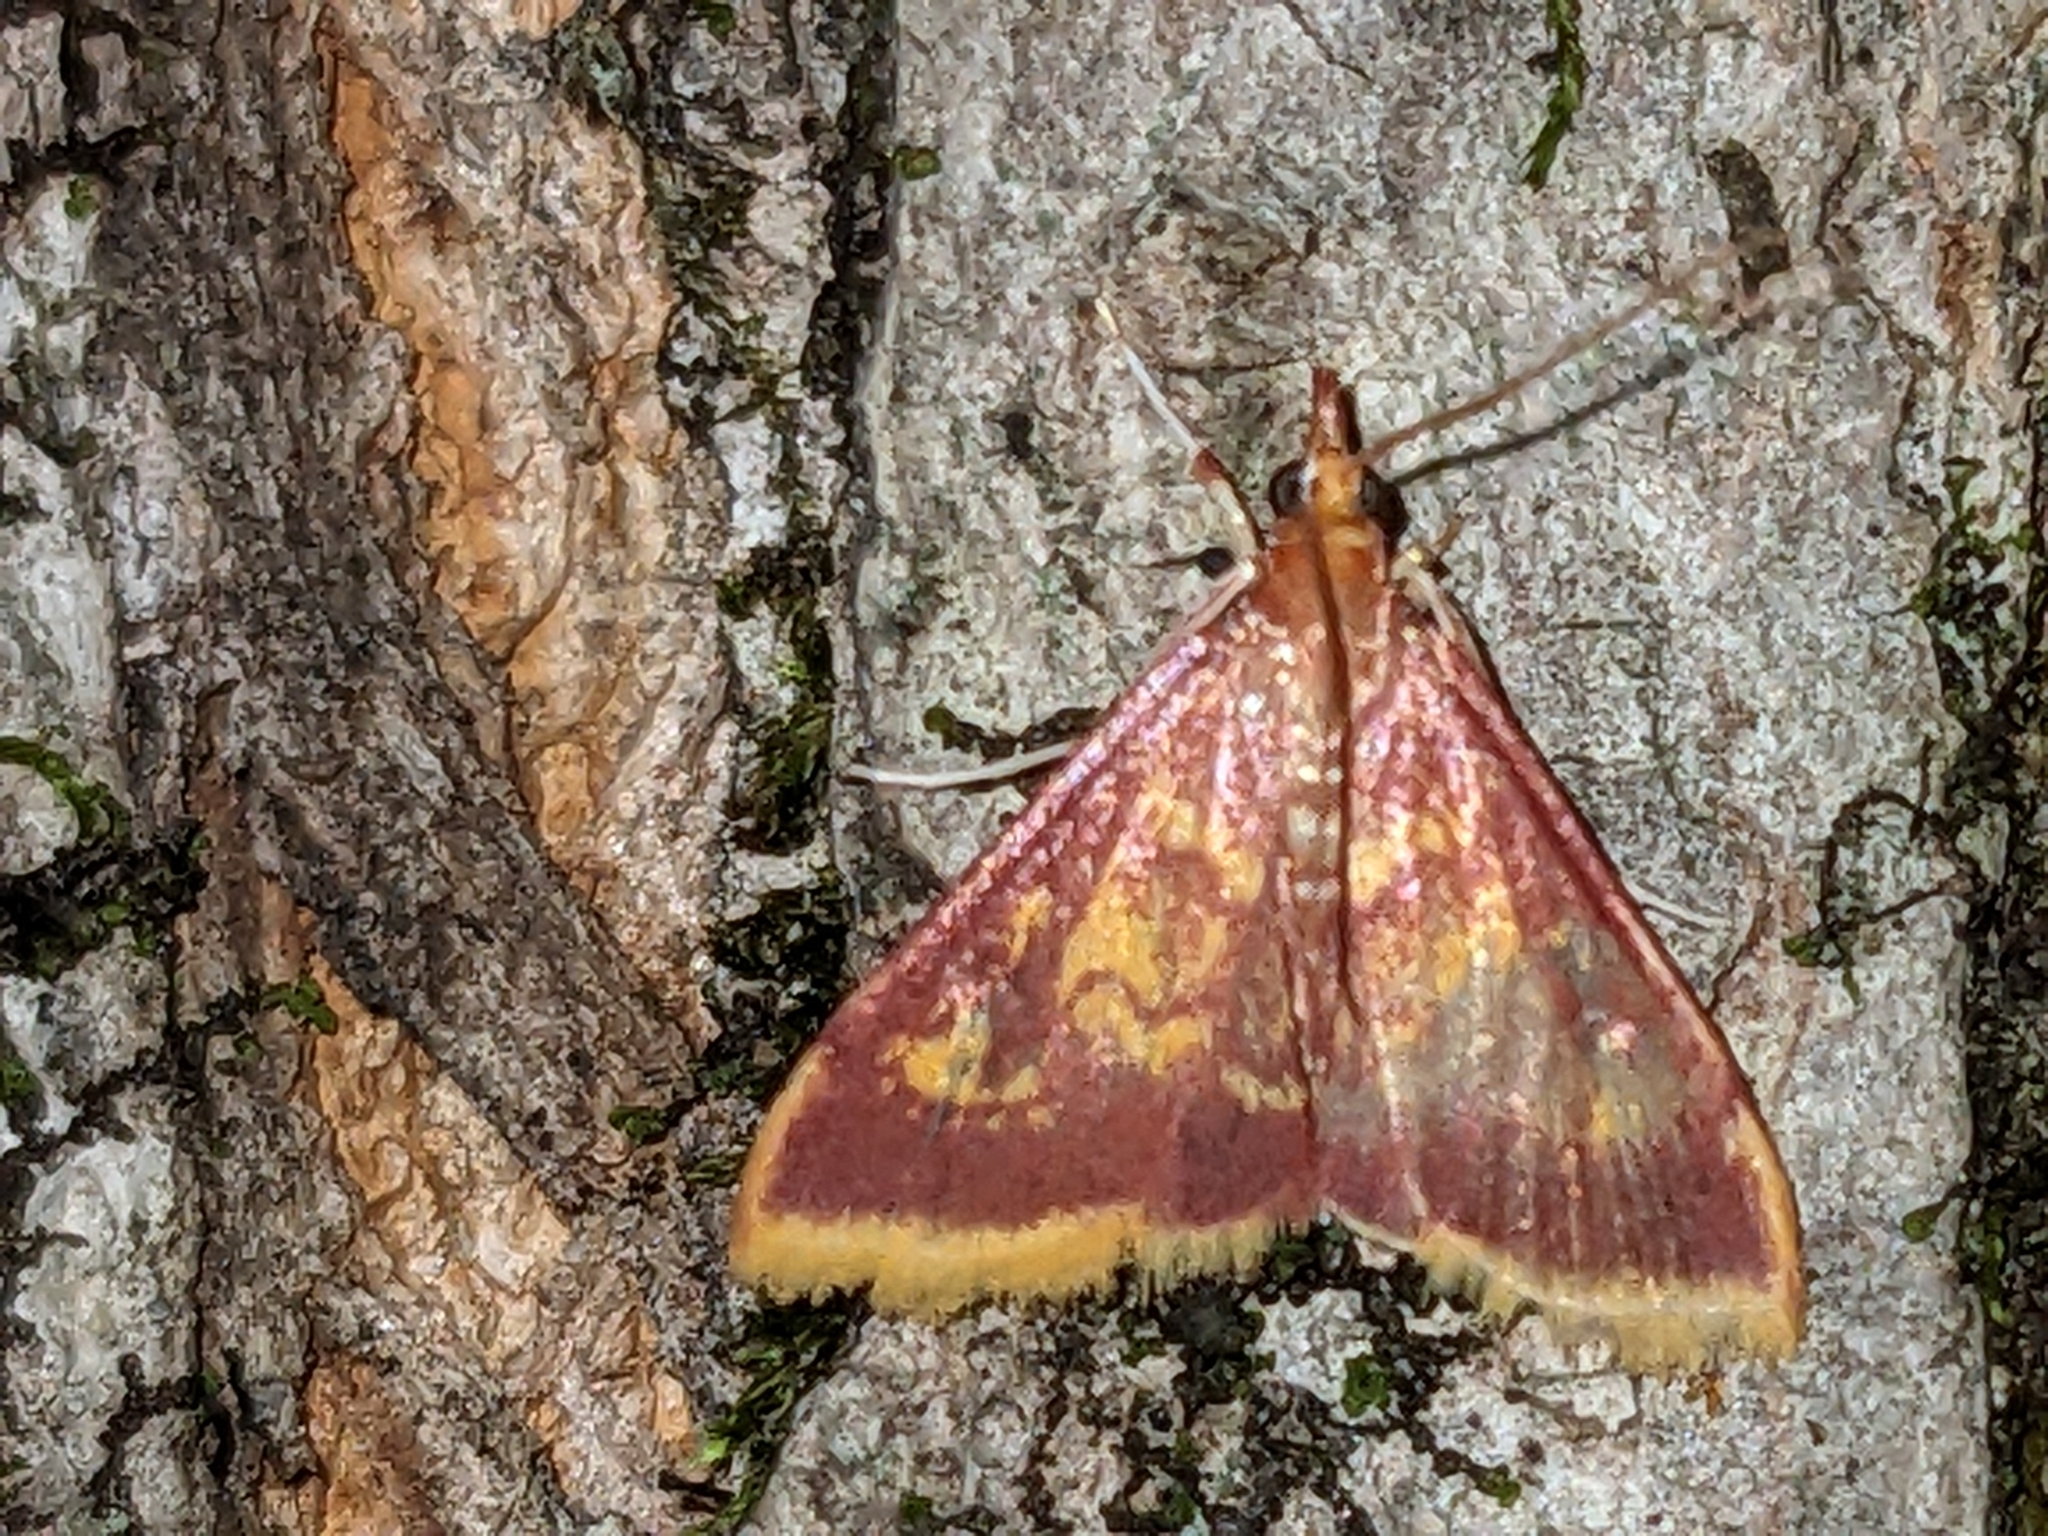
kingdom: Animalia
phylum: Arthropoda
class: Insecta
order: Lepidoptera
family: Crambidae
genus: Pyrausta
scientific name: Pyrausta acrionalis
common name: Mint-loving pyrausta moth
